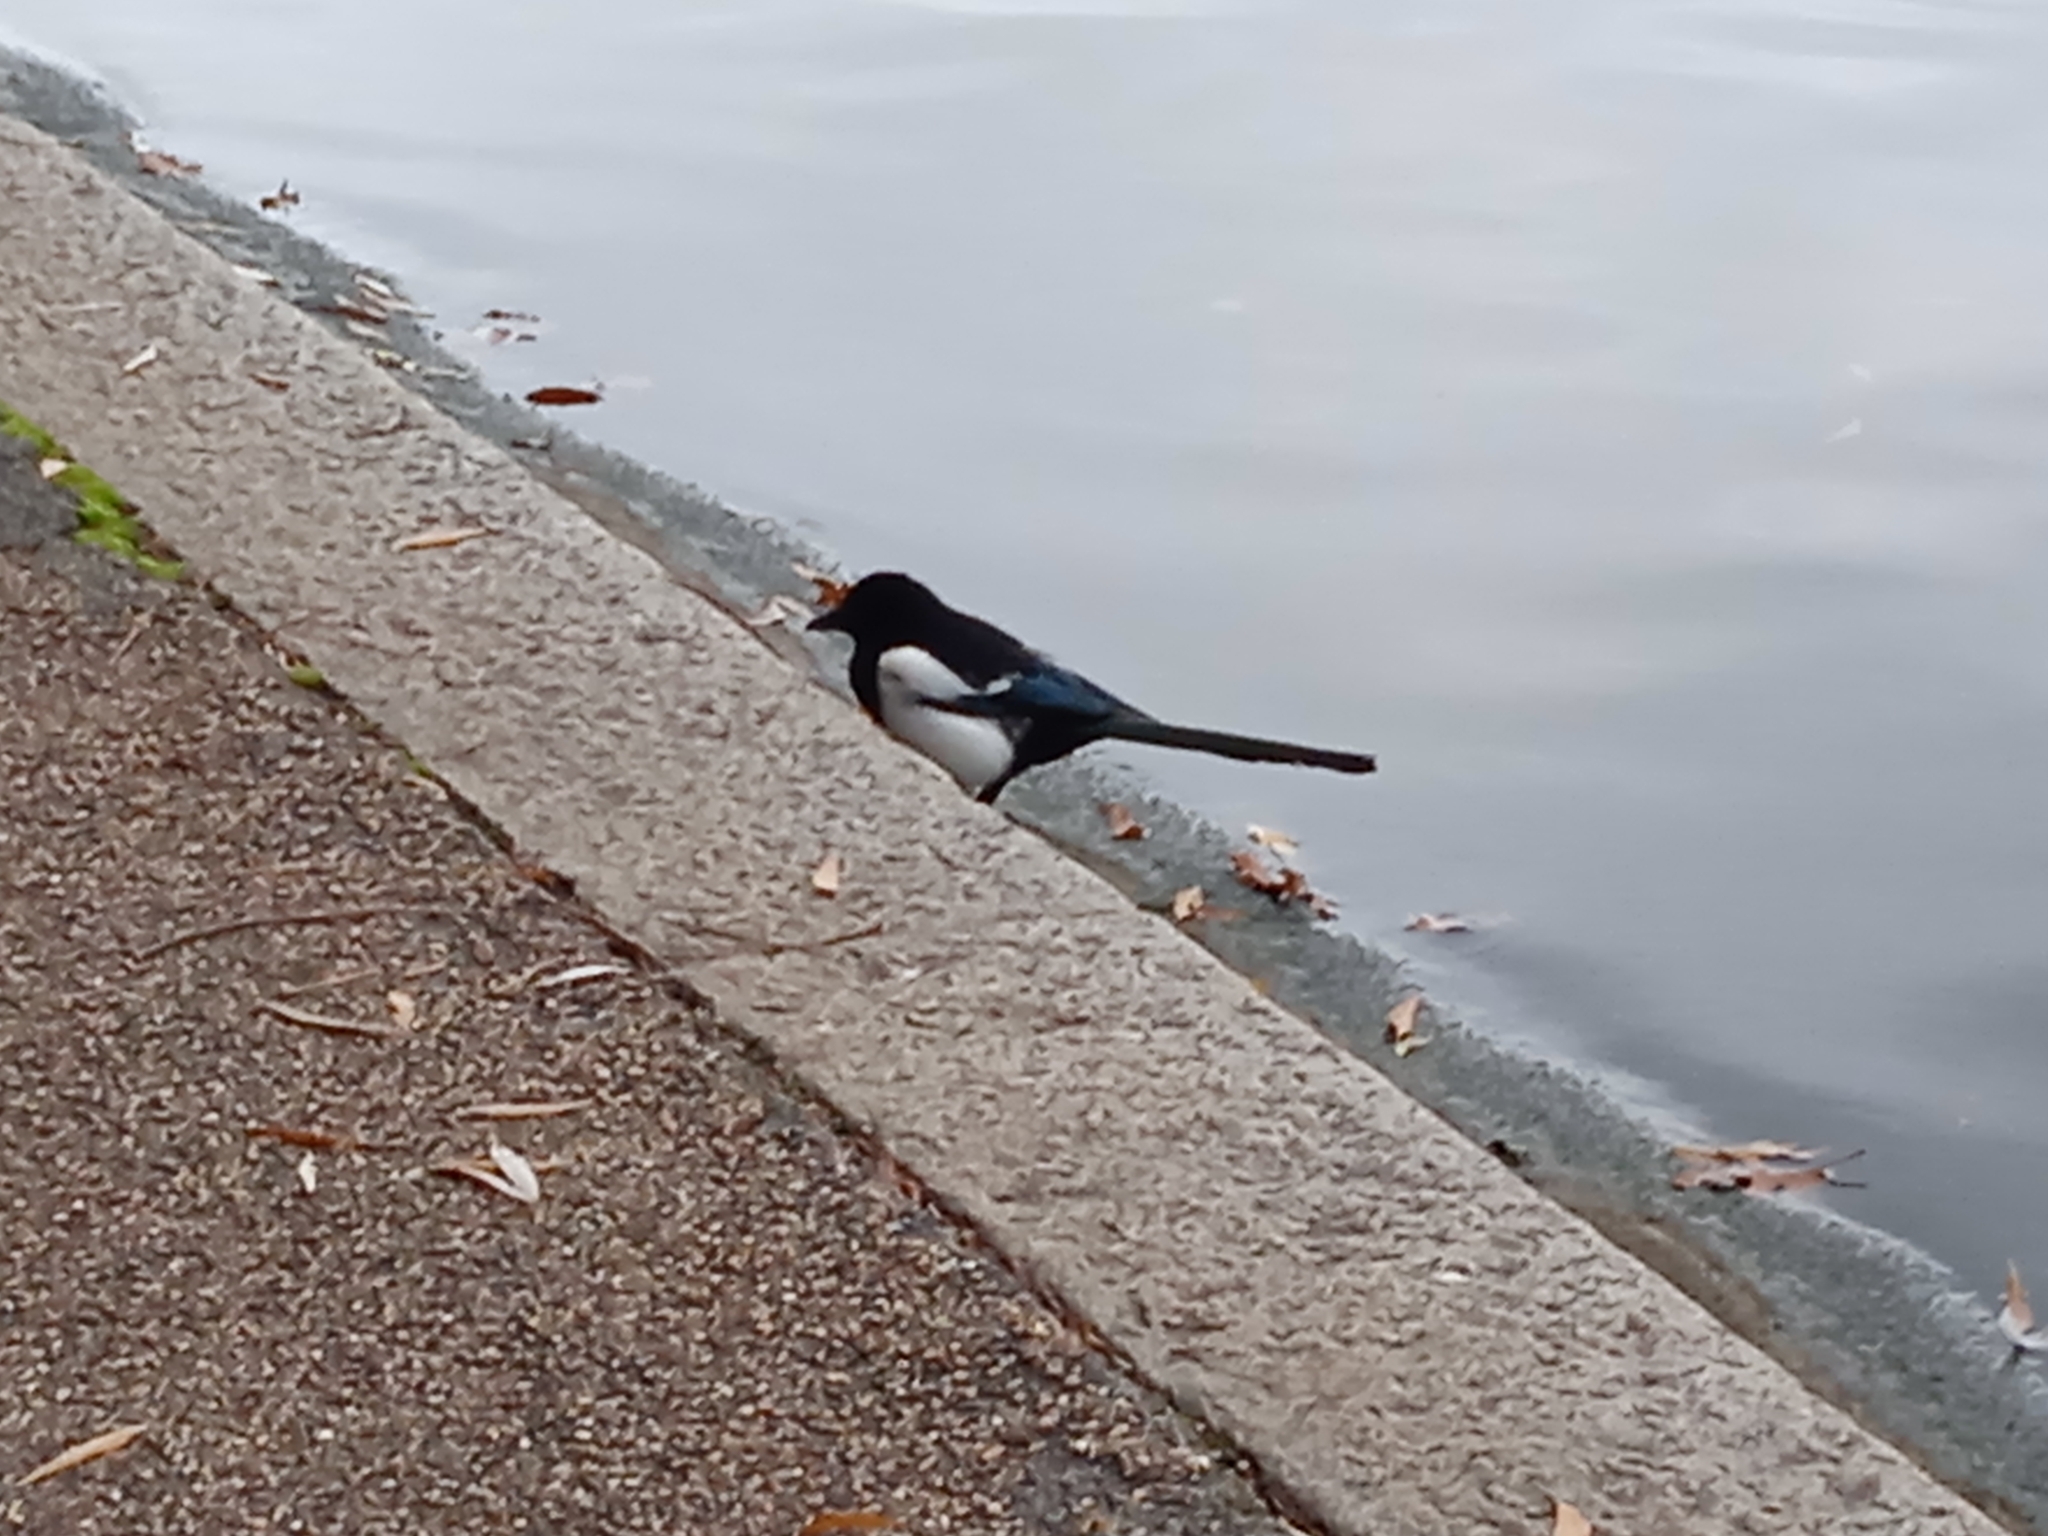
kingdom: Animalia
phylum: Chordata
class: Aves
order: Passeriformes
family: Corvidae
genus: Pica
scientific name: Pica pica
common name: Eurasian magpie
